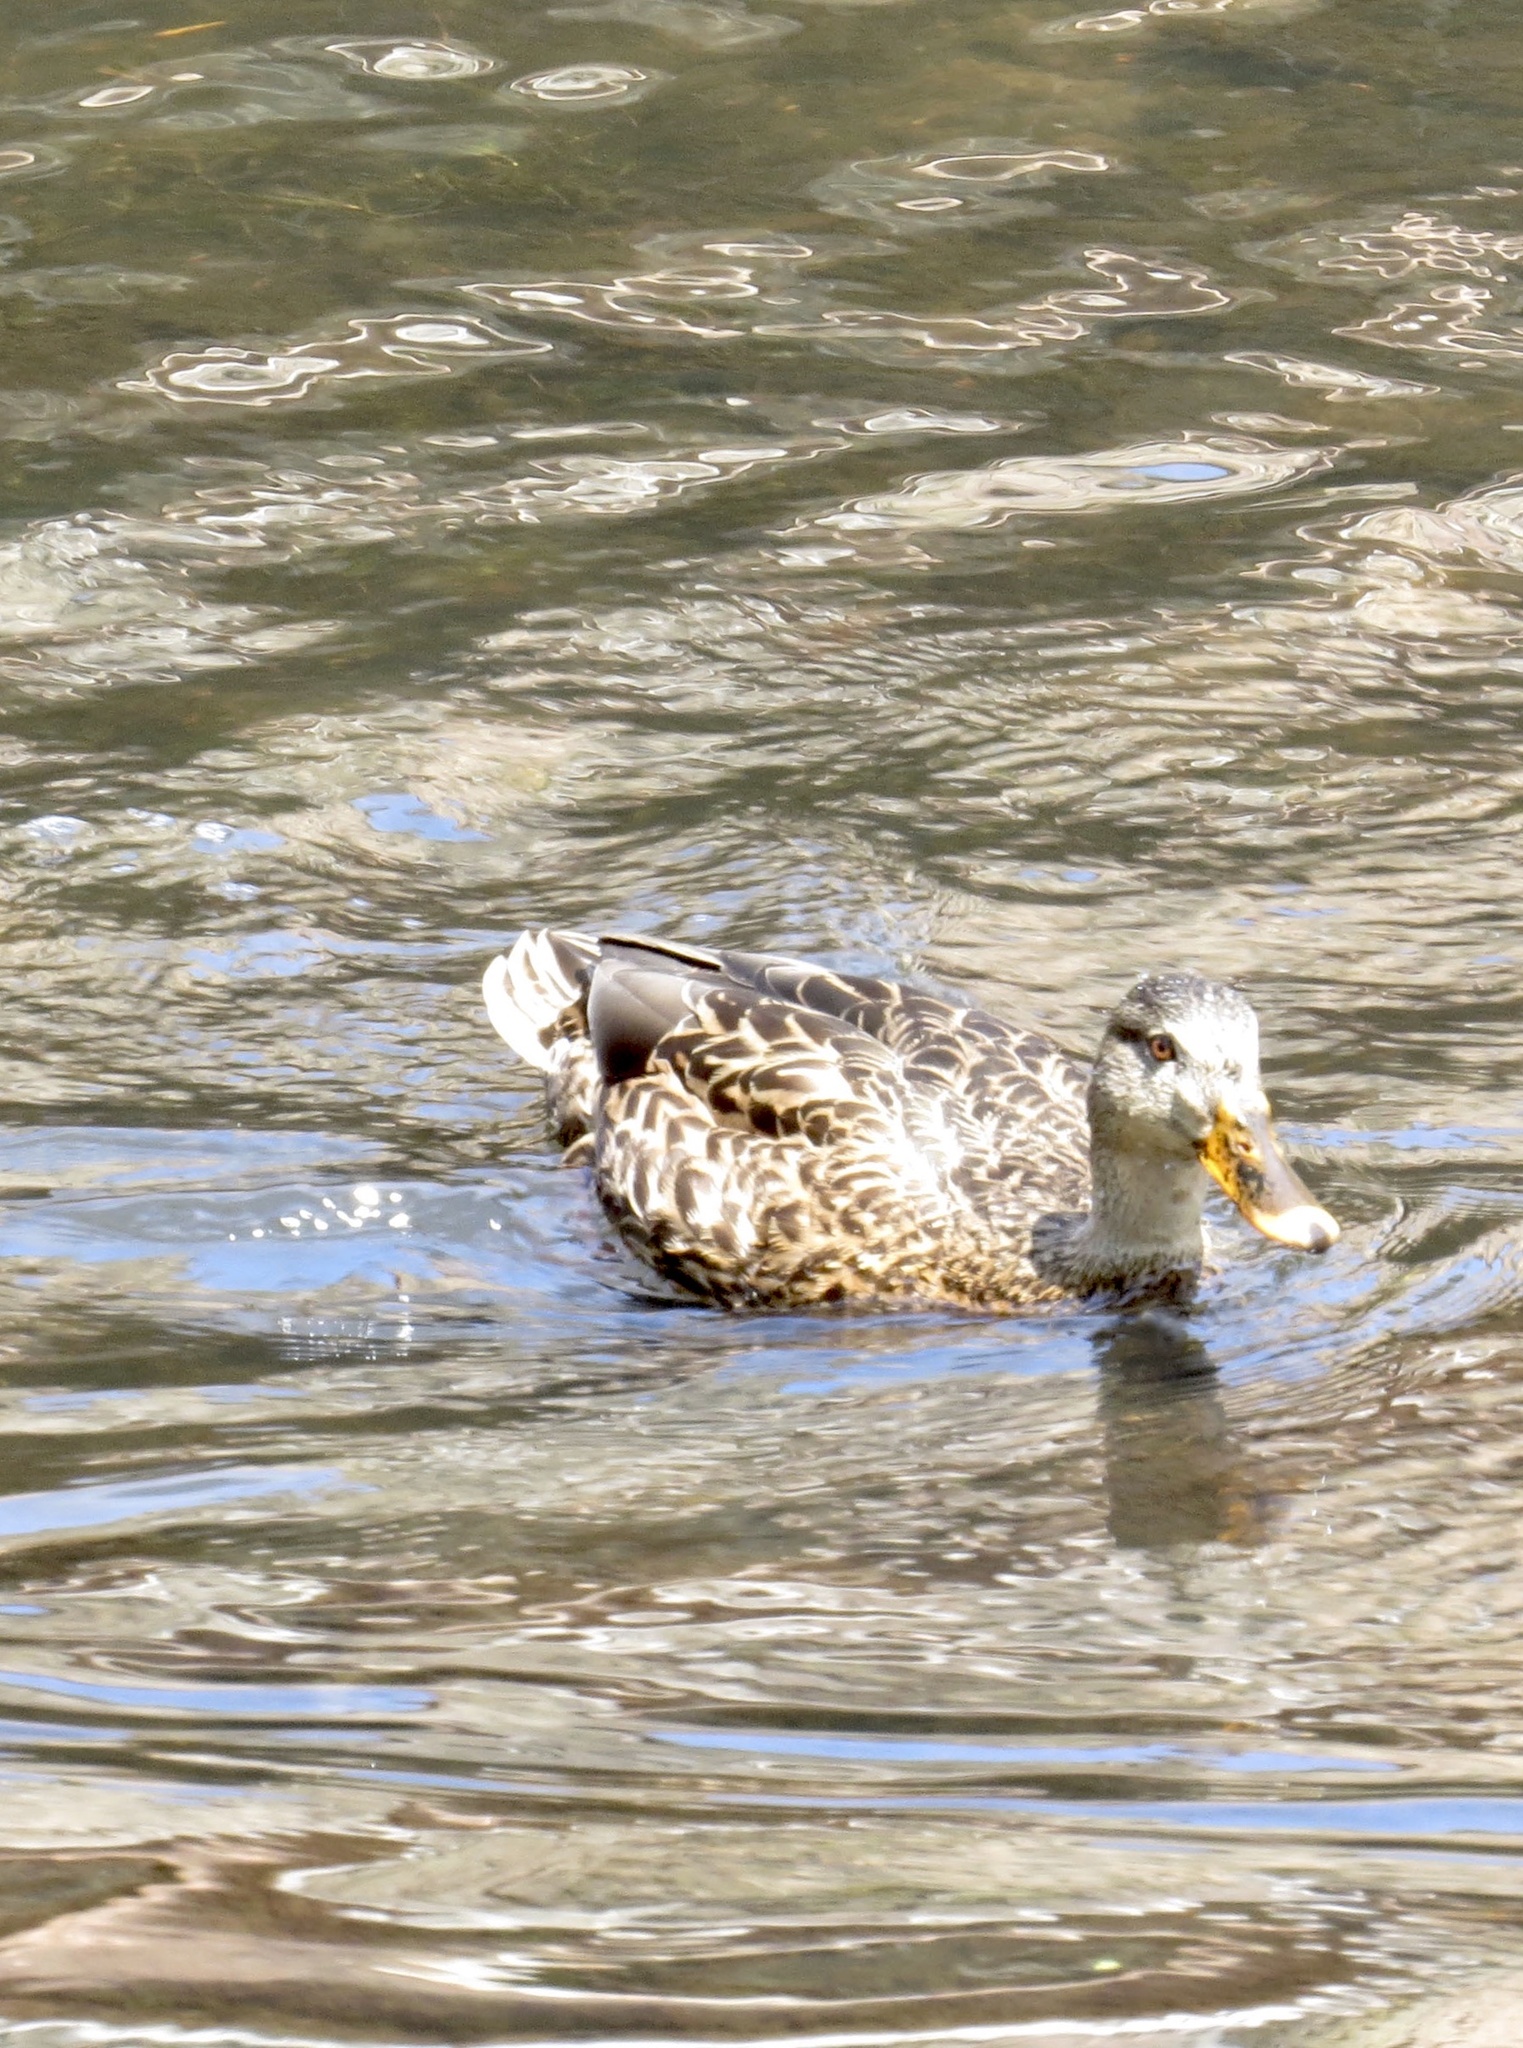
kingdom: Animalia
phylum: Chordata
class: Aves
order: Anseriformes
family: Anatidae
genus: Anas
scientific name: Anas platyrhynchos
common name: Mallard
